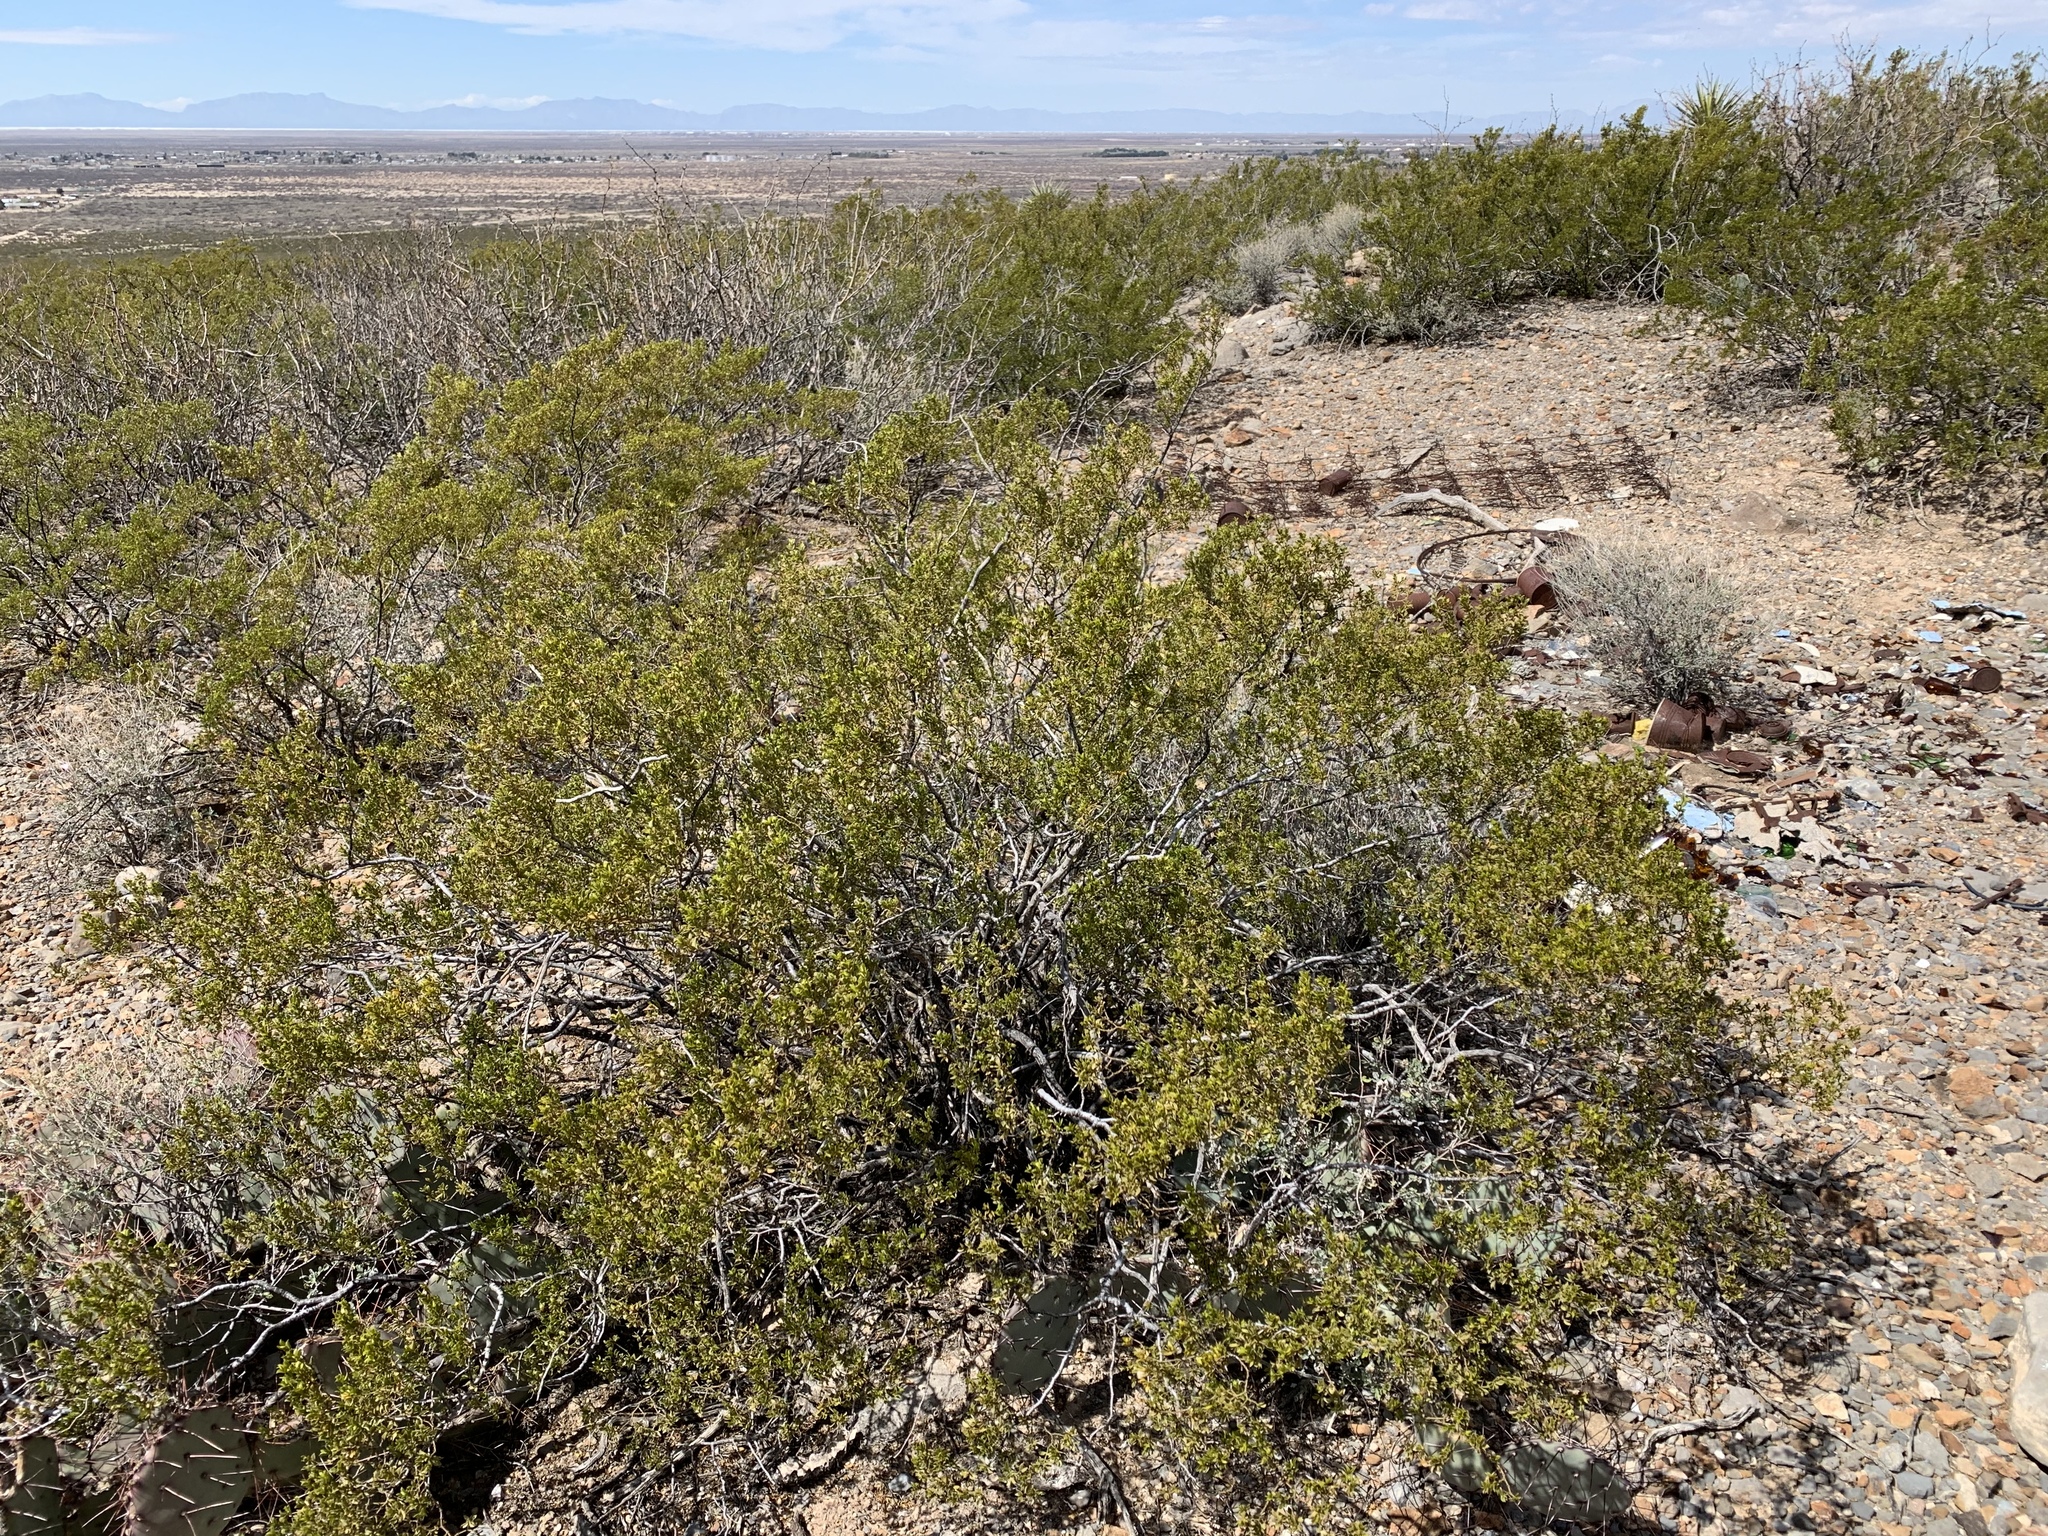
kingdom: Plantae
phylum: Tracheophyta
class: Magnoliopsida
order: Zygophyllales
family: Zygophyllaceae
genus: Larrea
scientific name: Larrea tridentata
